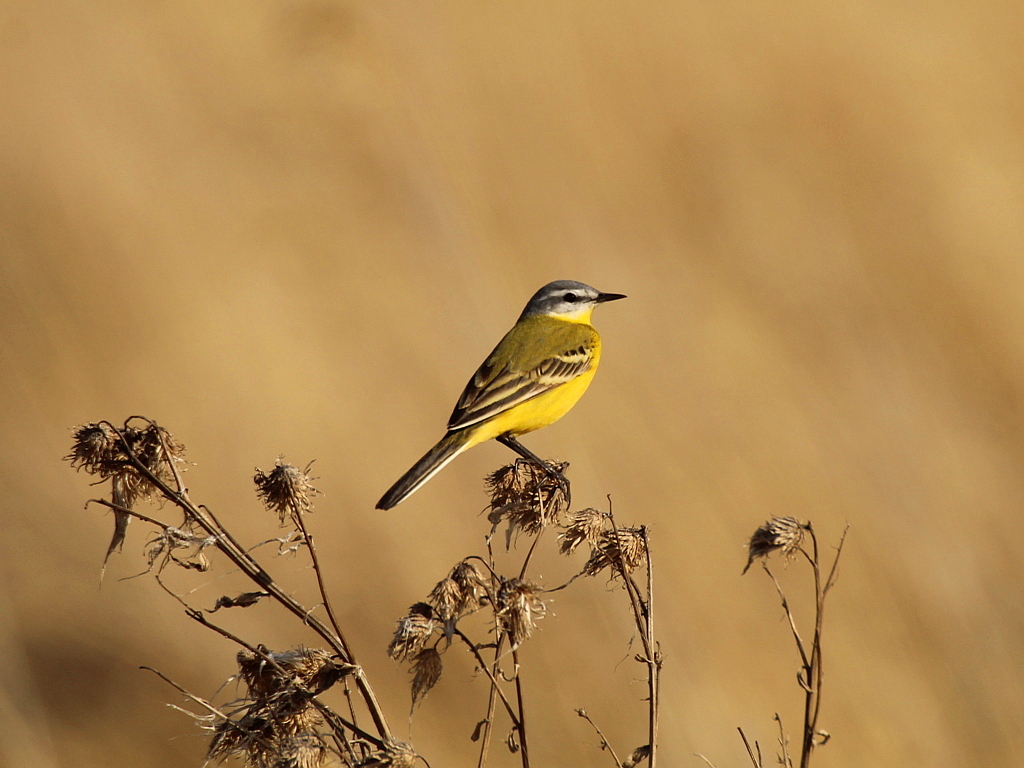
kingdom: Animalia
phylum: Chordata
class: Aves
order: Passeriformes
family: Motacillidae
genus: Motacilla
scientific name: Motacilla flava
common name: Western yellow wagtail
